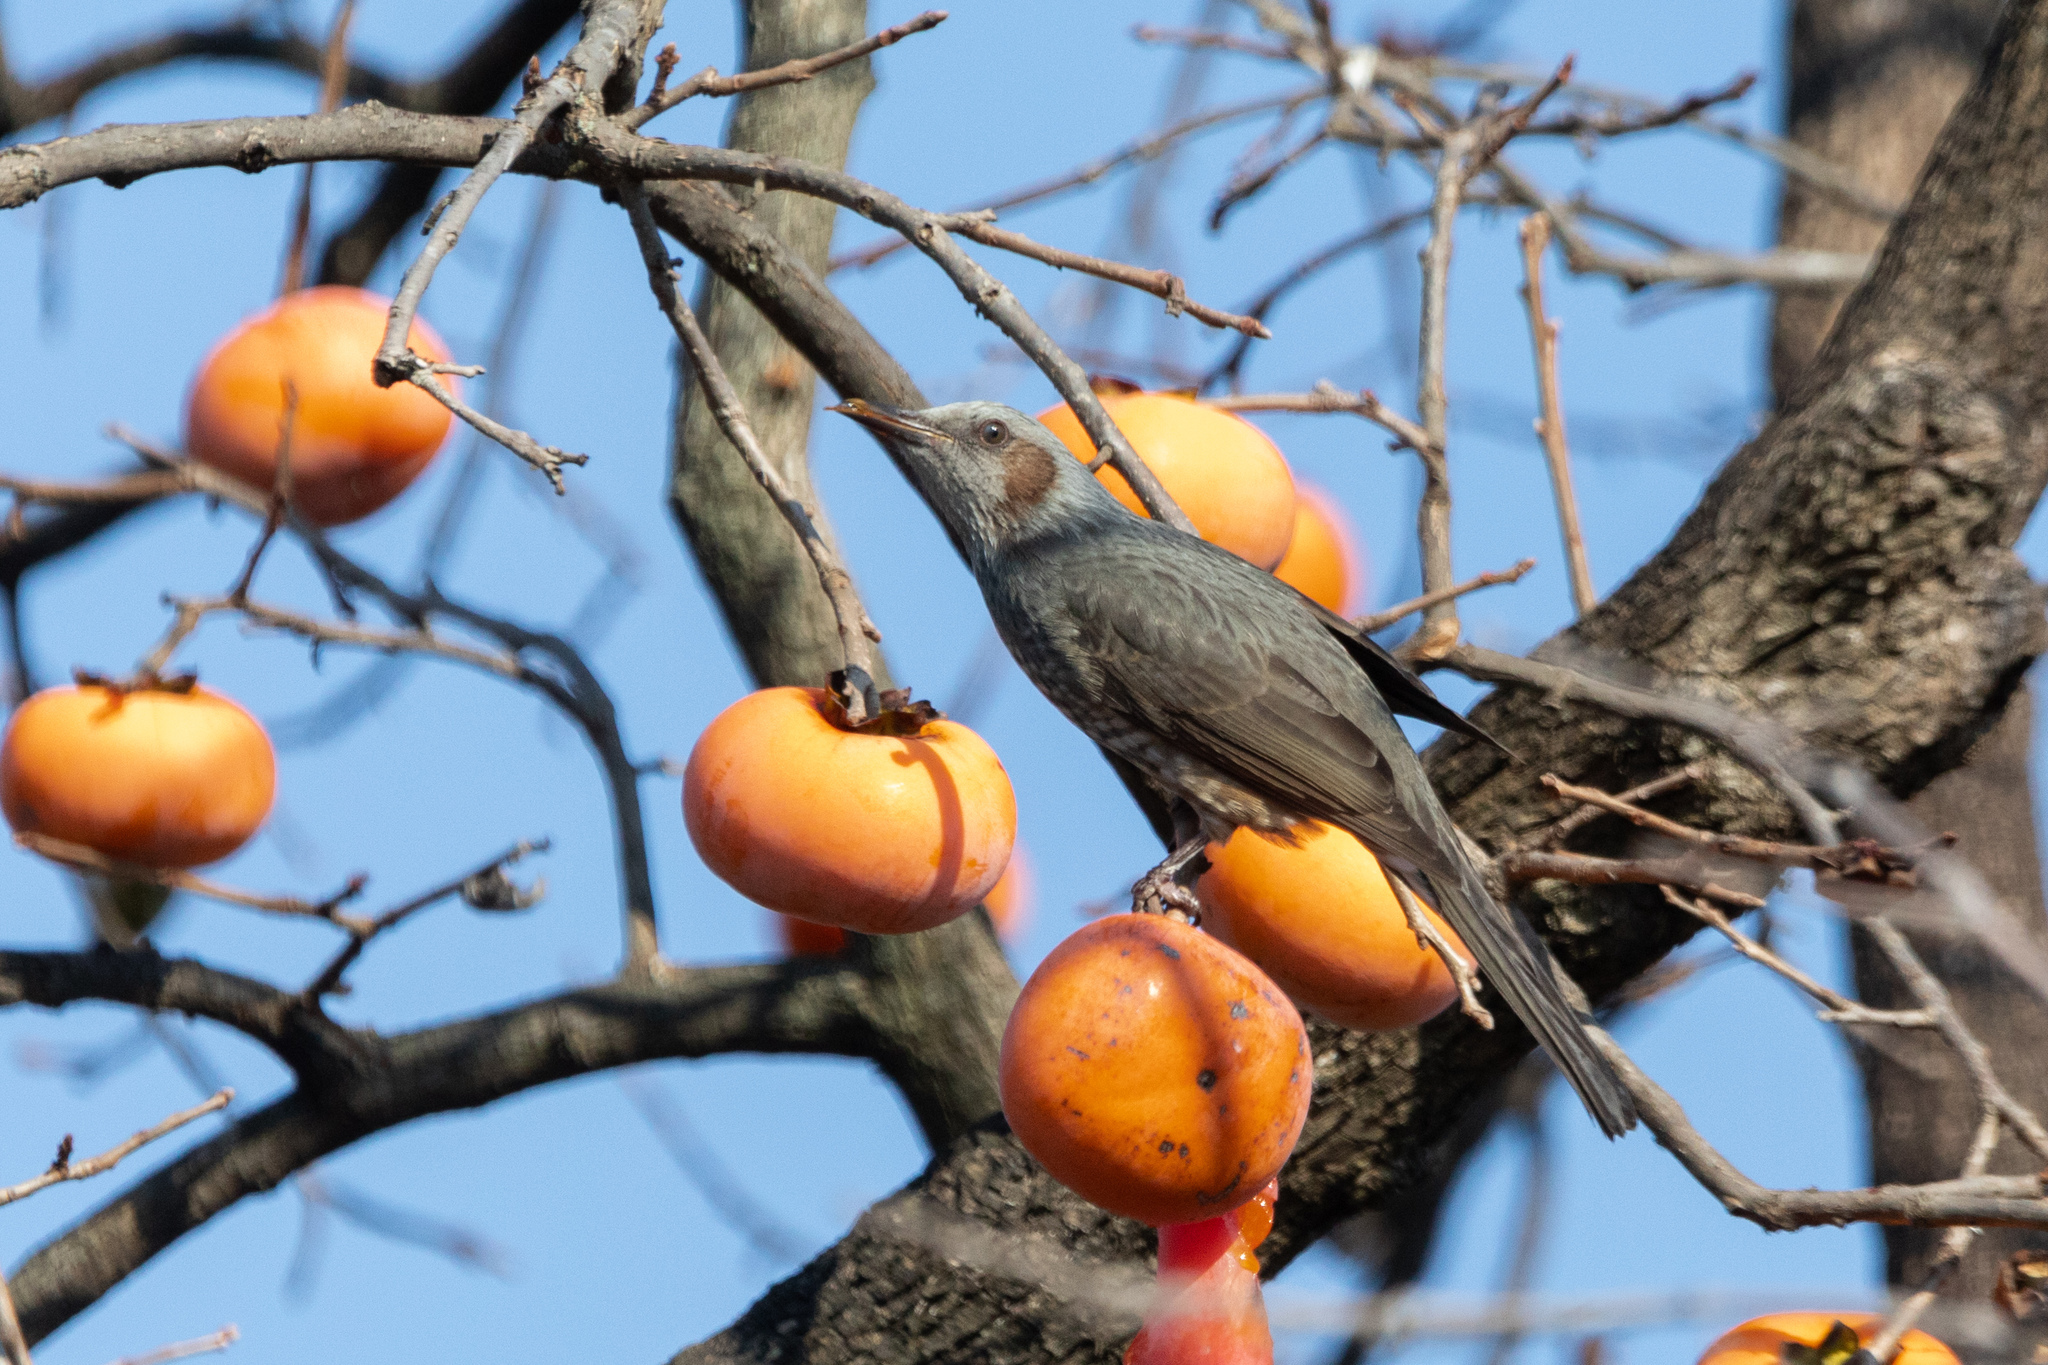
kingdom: Animalia
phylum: Chordata
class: Aves
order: Passeriformes
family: Pycnonotidae
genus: Hypsipetes
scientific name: Hypsipetes amaurotis
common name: Brown-eared bulbul
